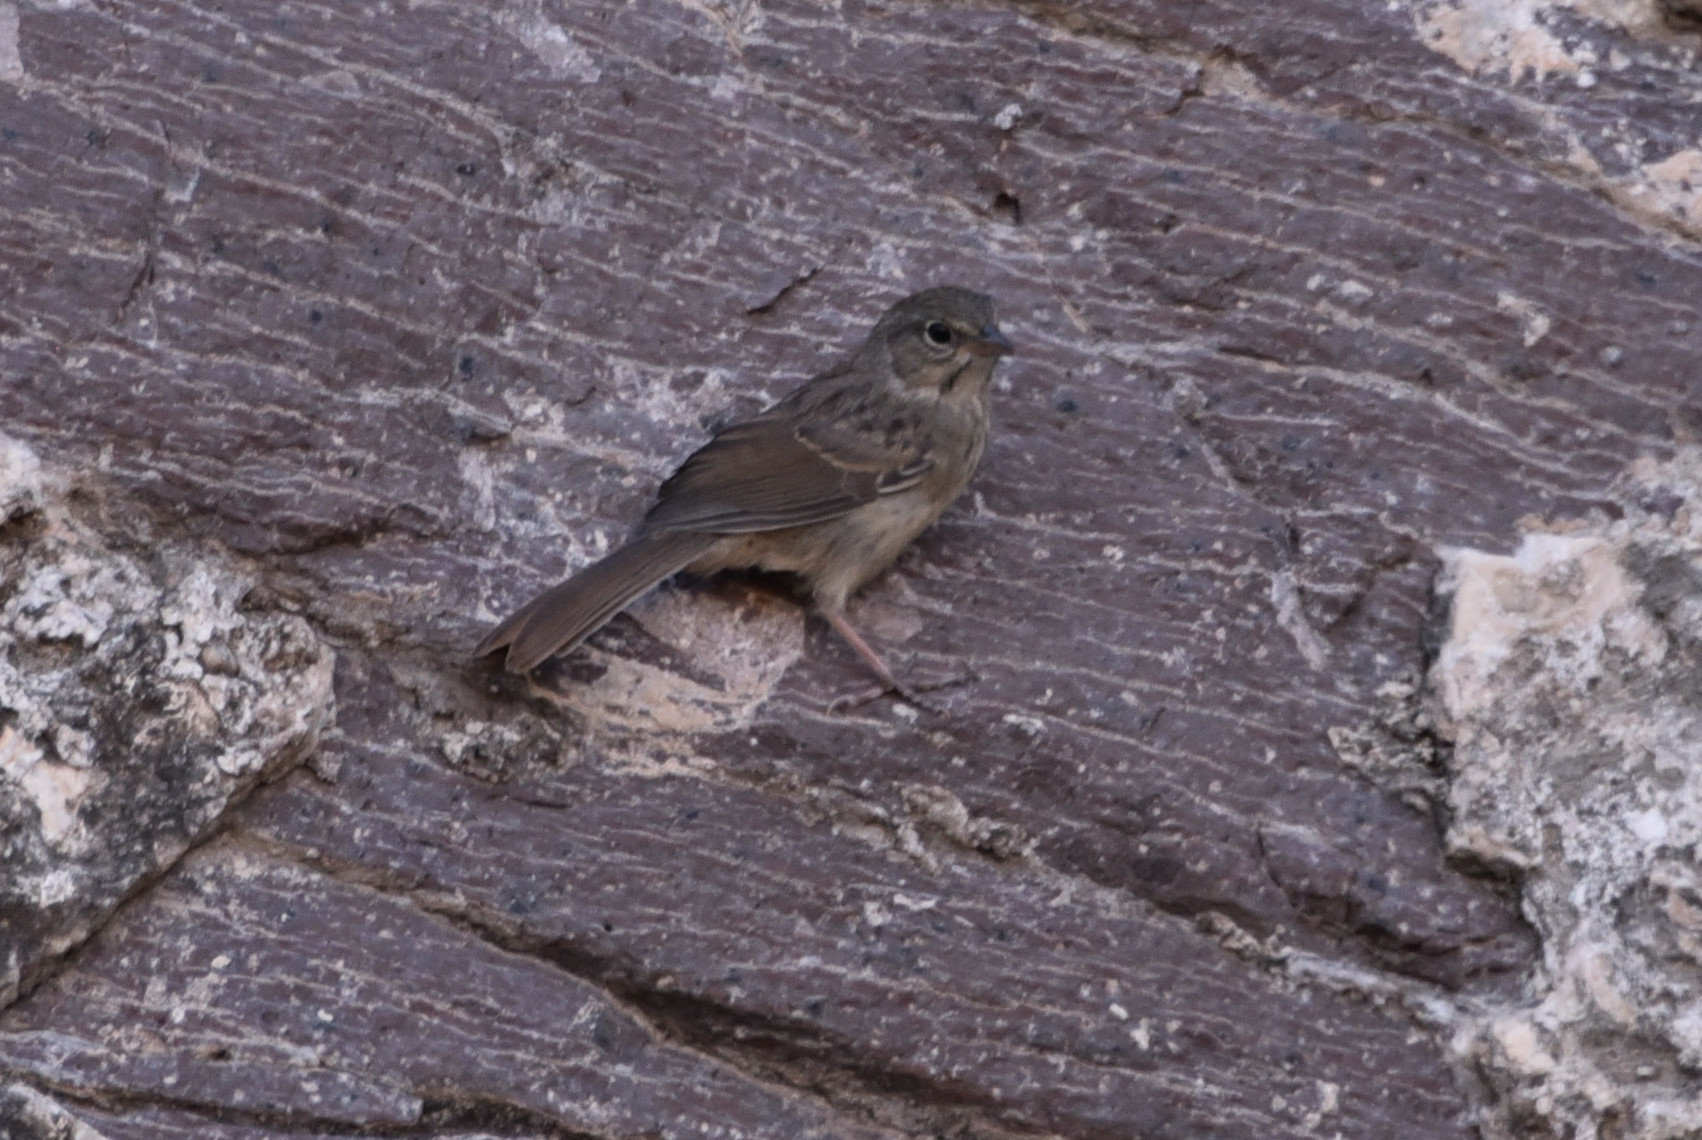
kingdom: Animalia
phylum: Chordata
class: Aves
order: Passeriformes
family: Passerellidae
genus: Aimophila
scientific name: Aimophila ruficeps
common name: Rufous-crowned sparrow
